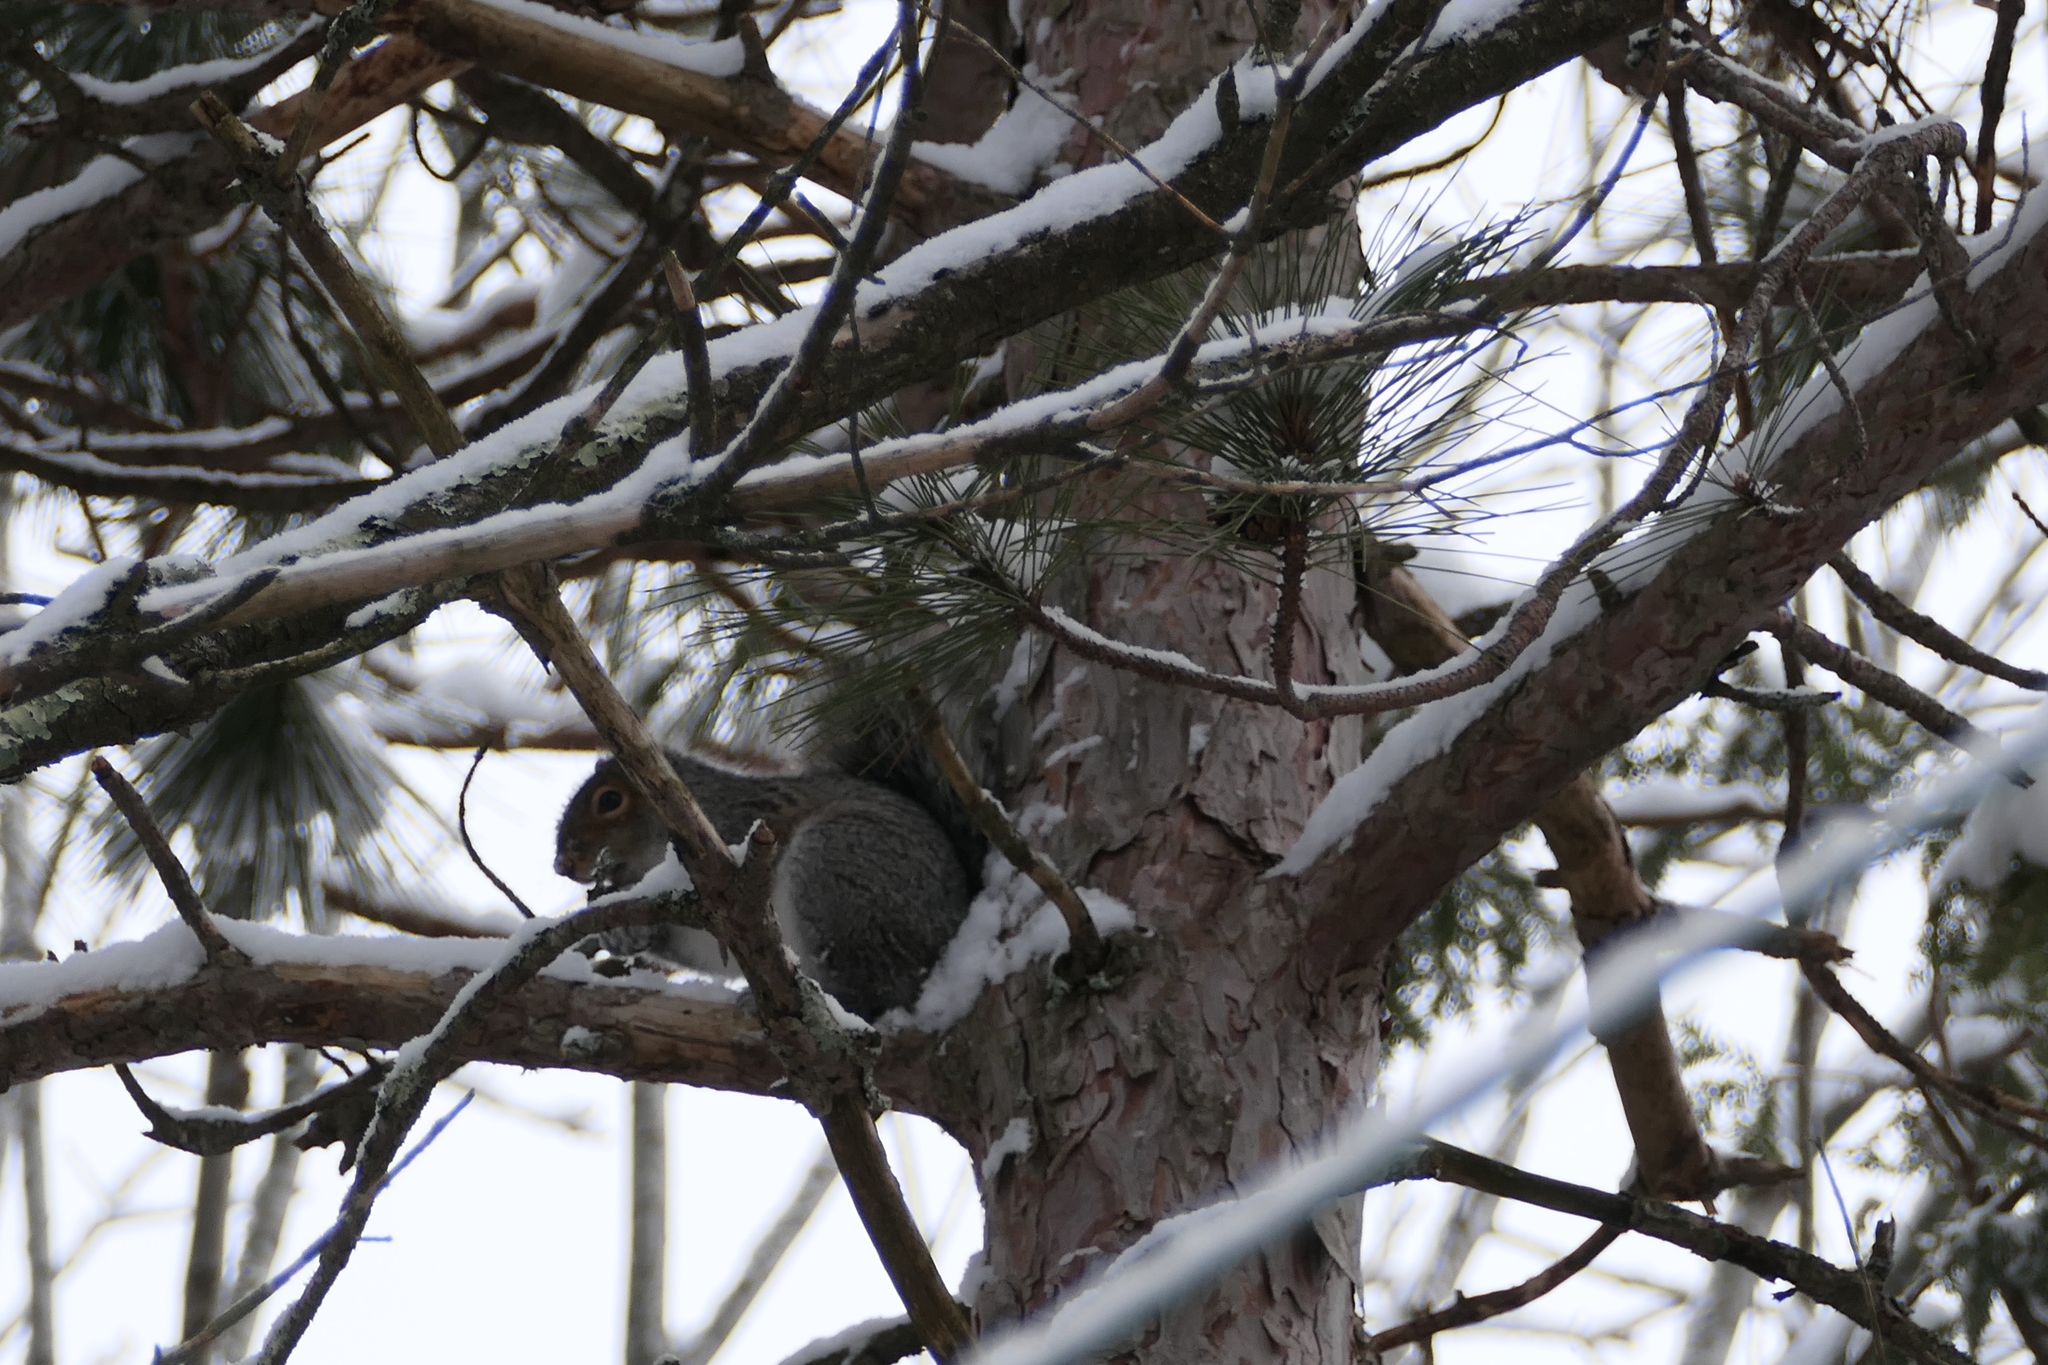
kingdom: Animalia
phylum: Chordata
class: Mammalia
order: Rodentia
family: Sciuridae
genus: Sciurus
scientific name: Sciurus carolinensis
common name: Eastern gray squirrel
